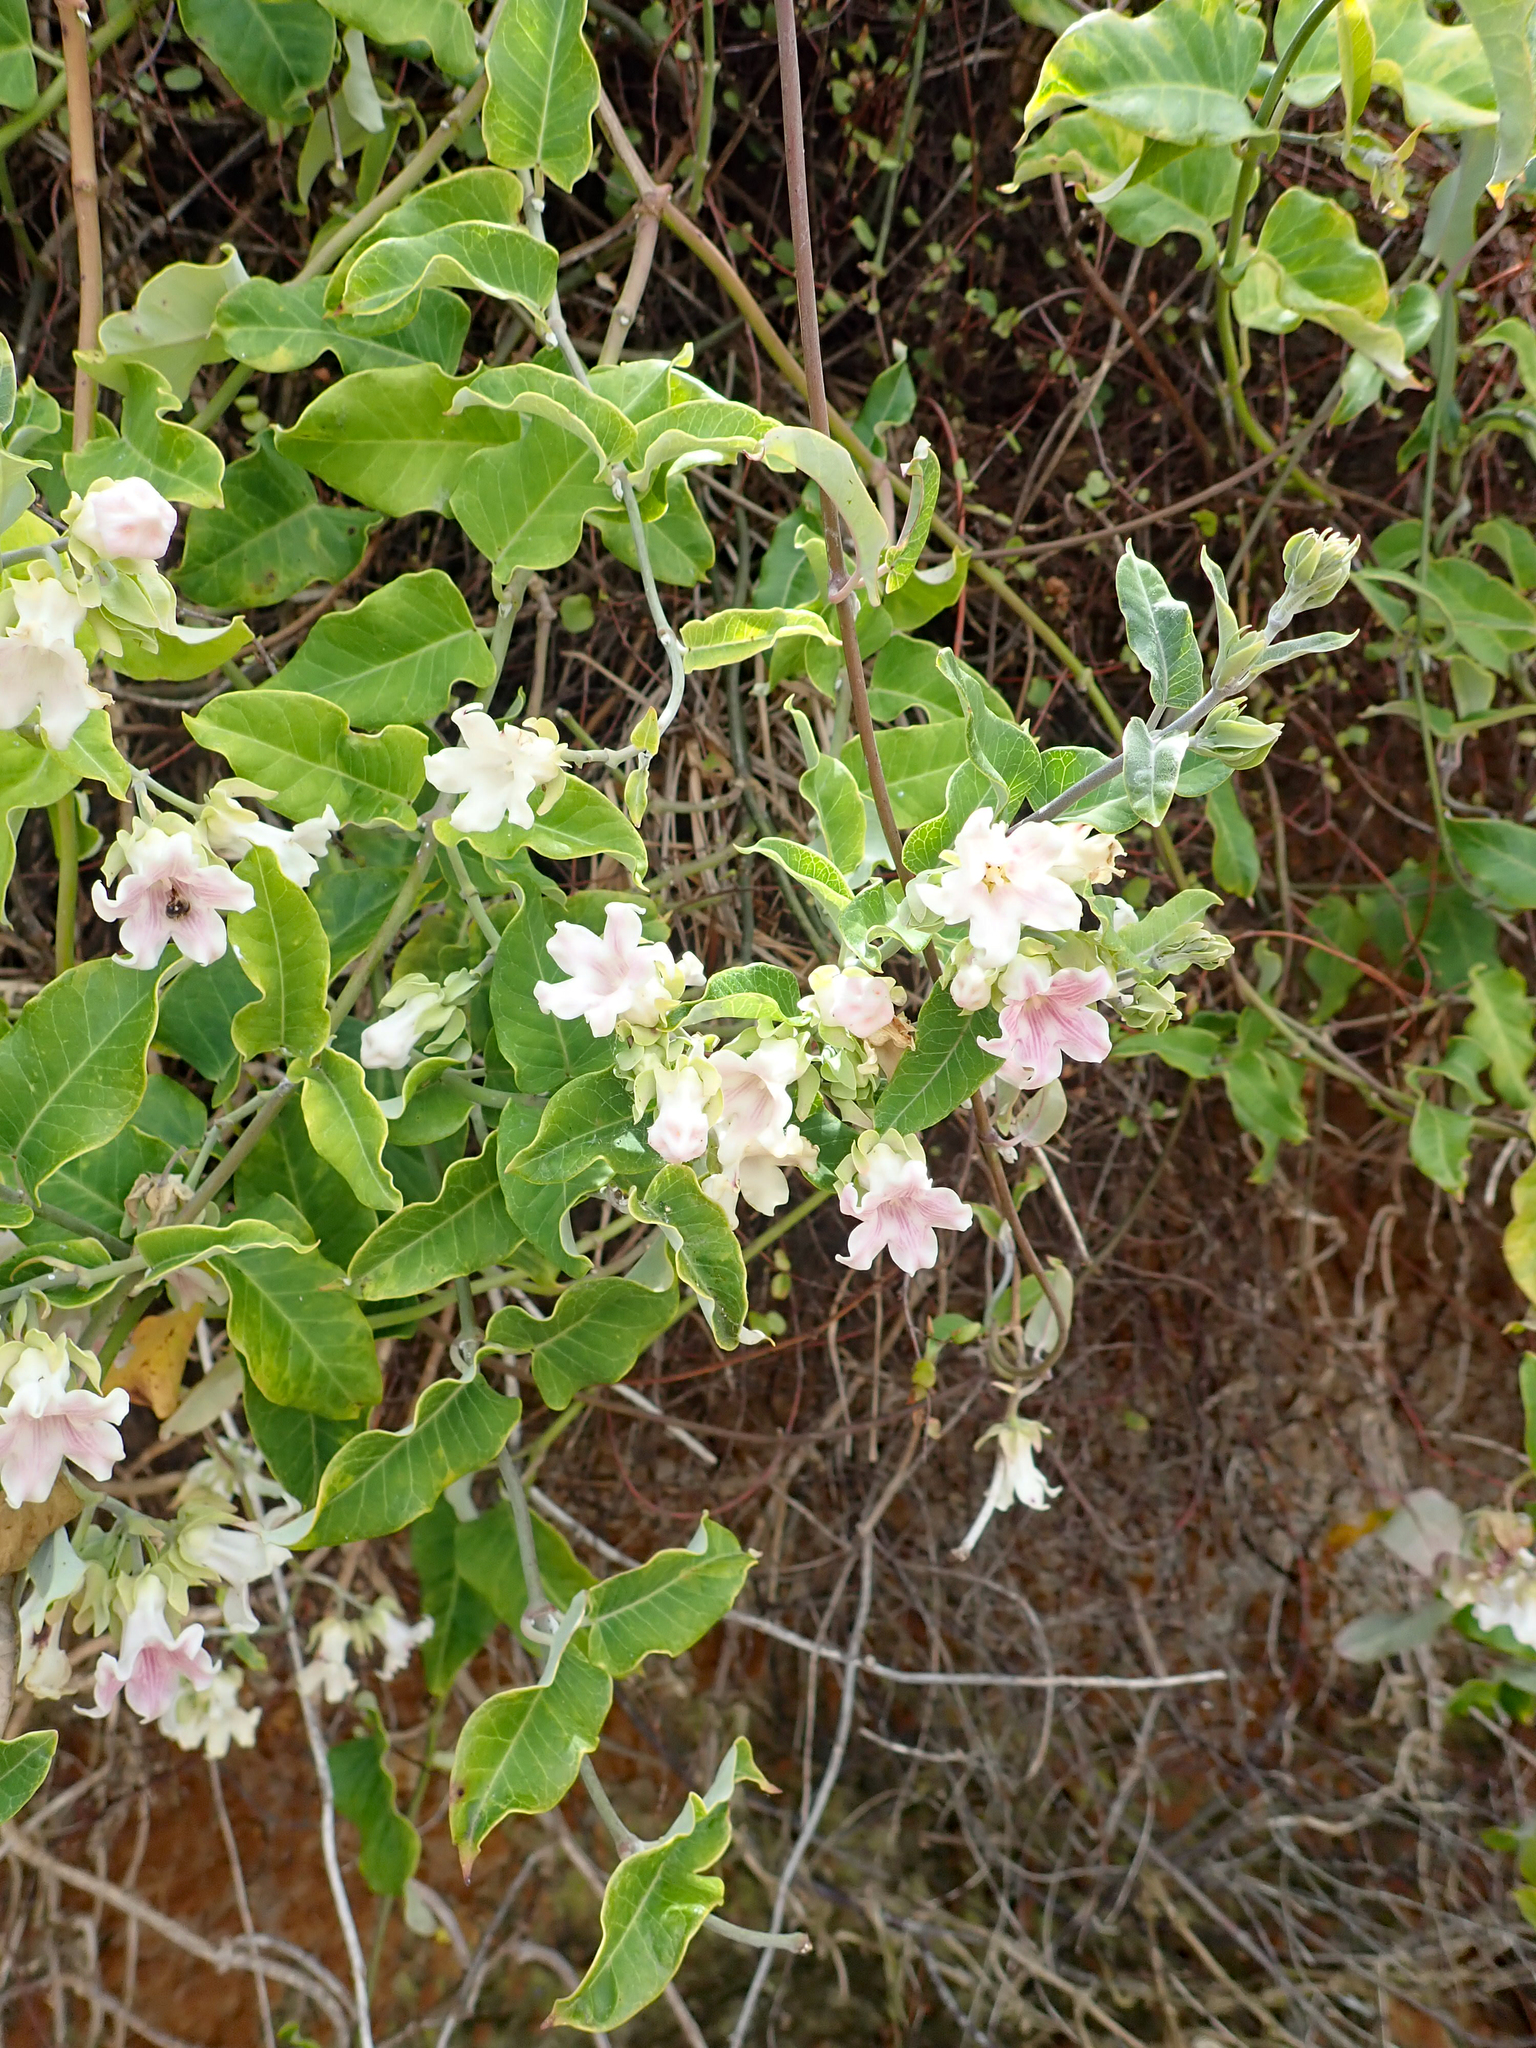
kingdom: Plantae
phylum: Tracheophyta
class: Magnoliopsida
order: Gentianales
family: Apocynaceae
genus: Araujia
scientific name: Araujia sericifera
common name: White bladderflower
